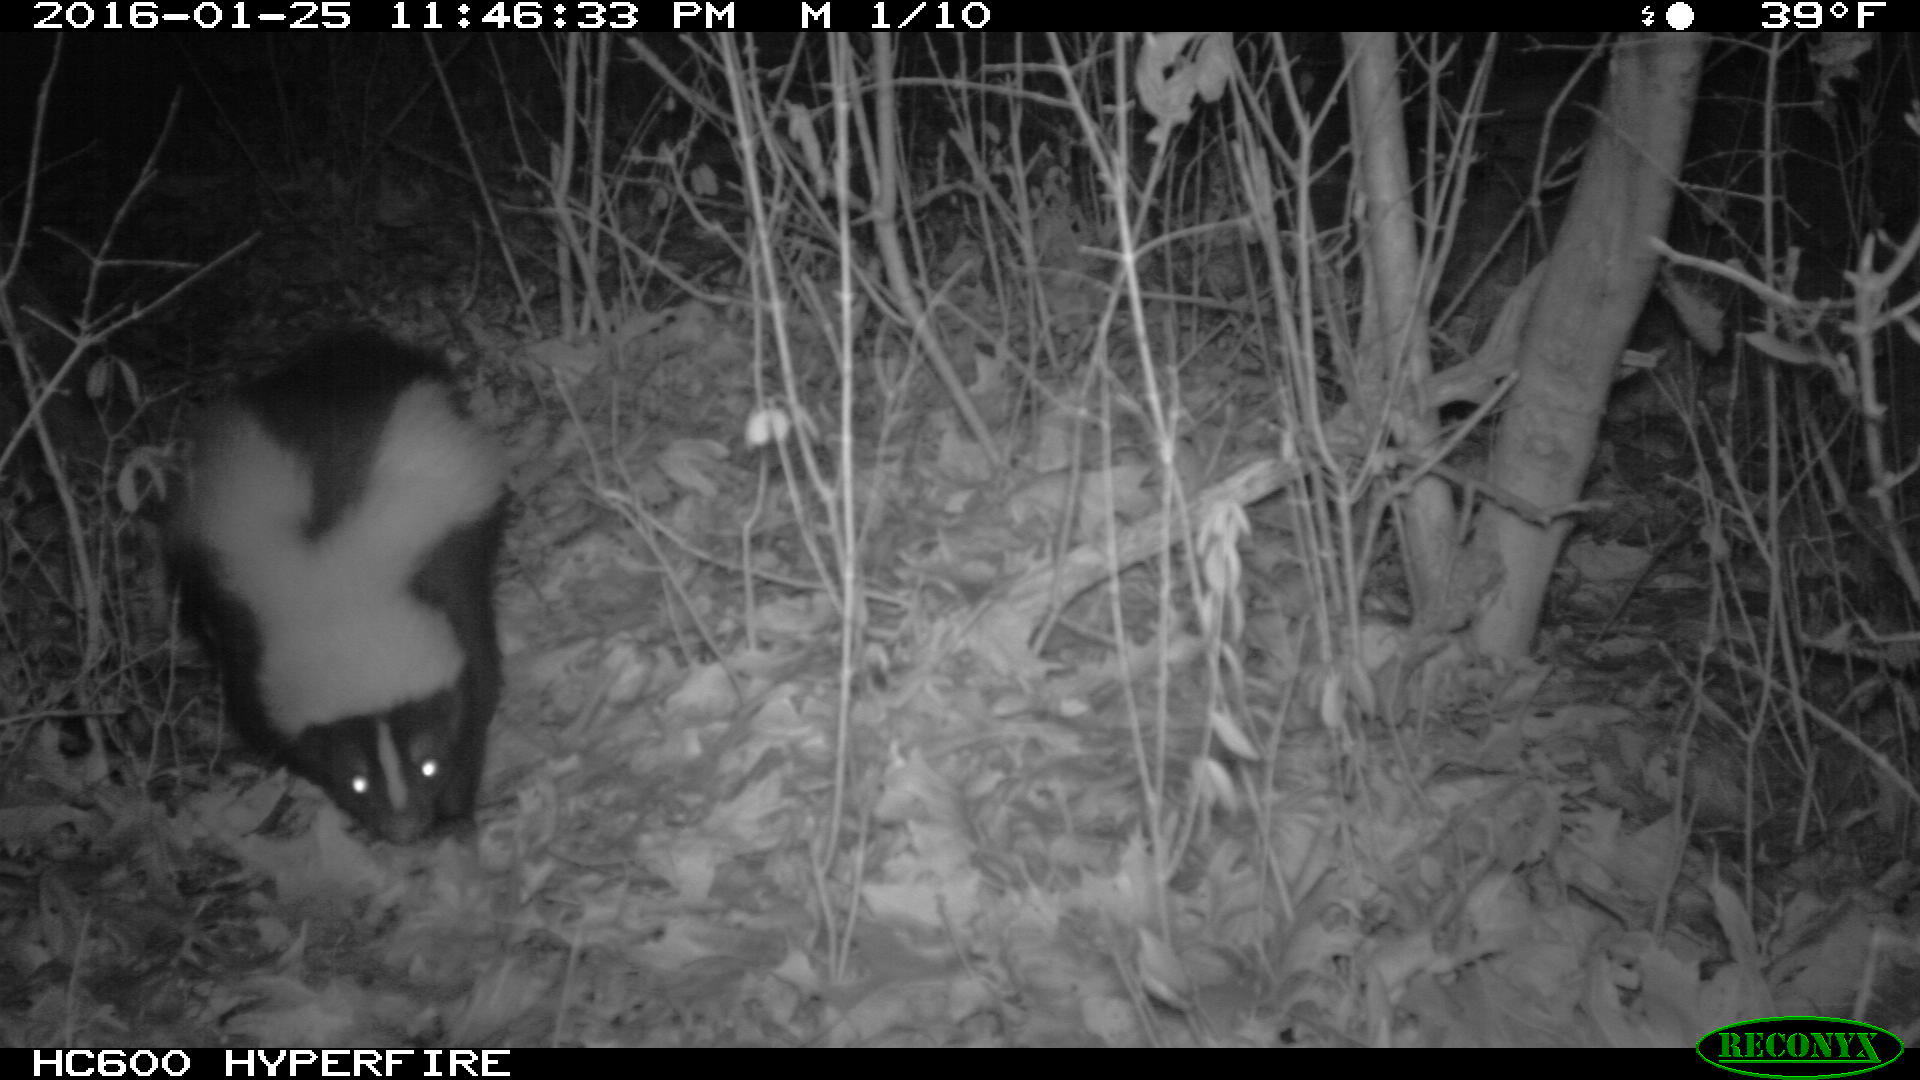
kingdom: Animalia
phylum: Chordata
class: Mammalia
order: Carnivora
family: Mephitidae
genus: Mephitis
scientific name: Mephitis mephitis
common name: Striped skunk
